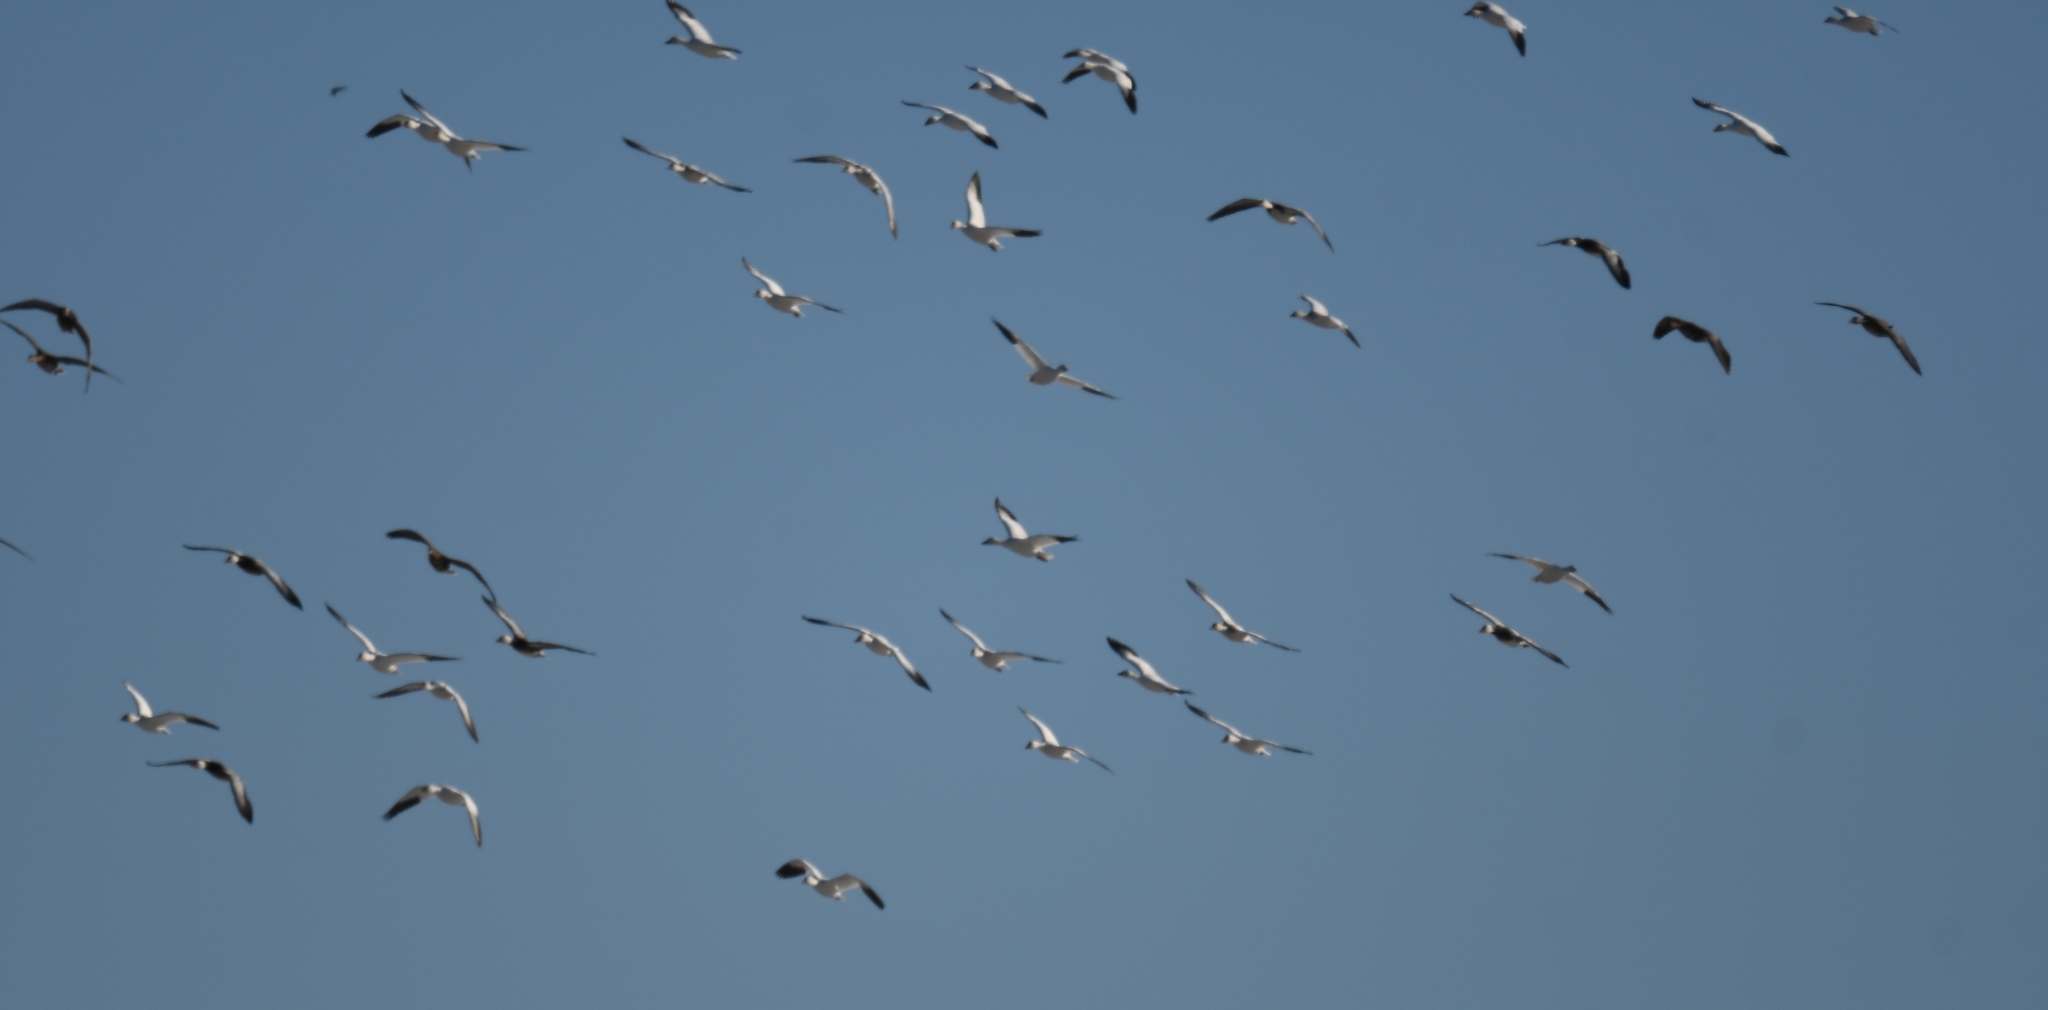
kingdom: Animalia
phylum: Chordata
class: Aves
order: Anseriformes
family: Anatidae
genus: Anser
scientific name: Anser caerulescens
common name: Snow goose
